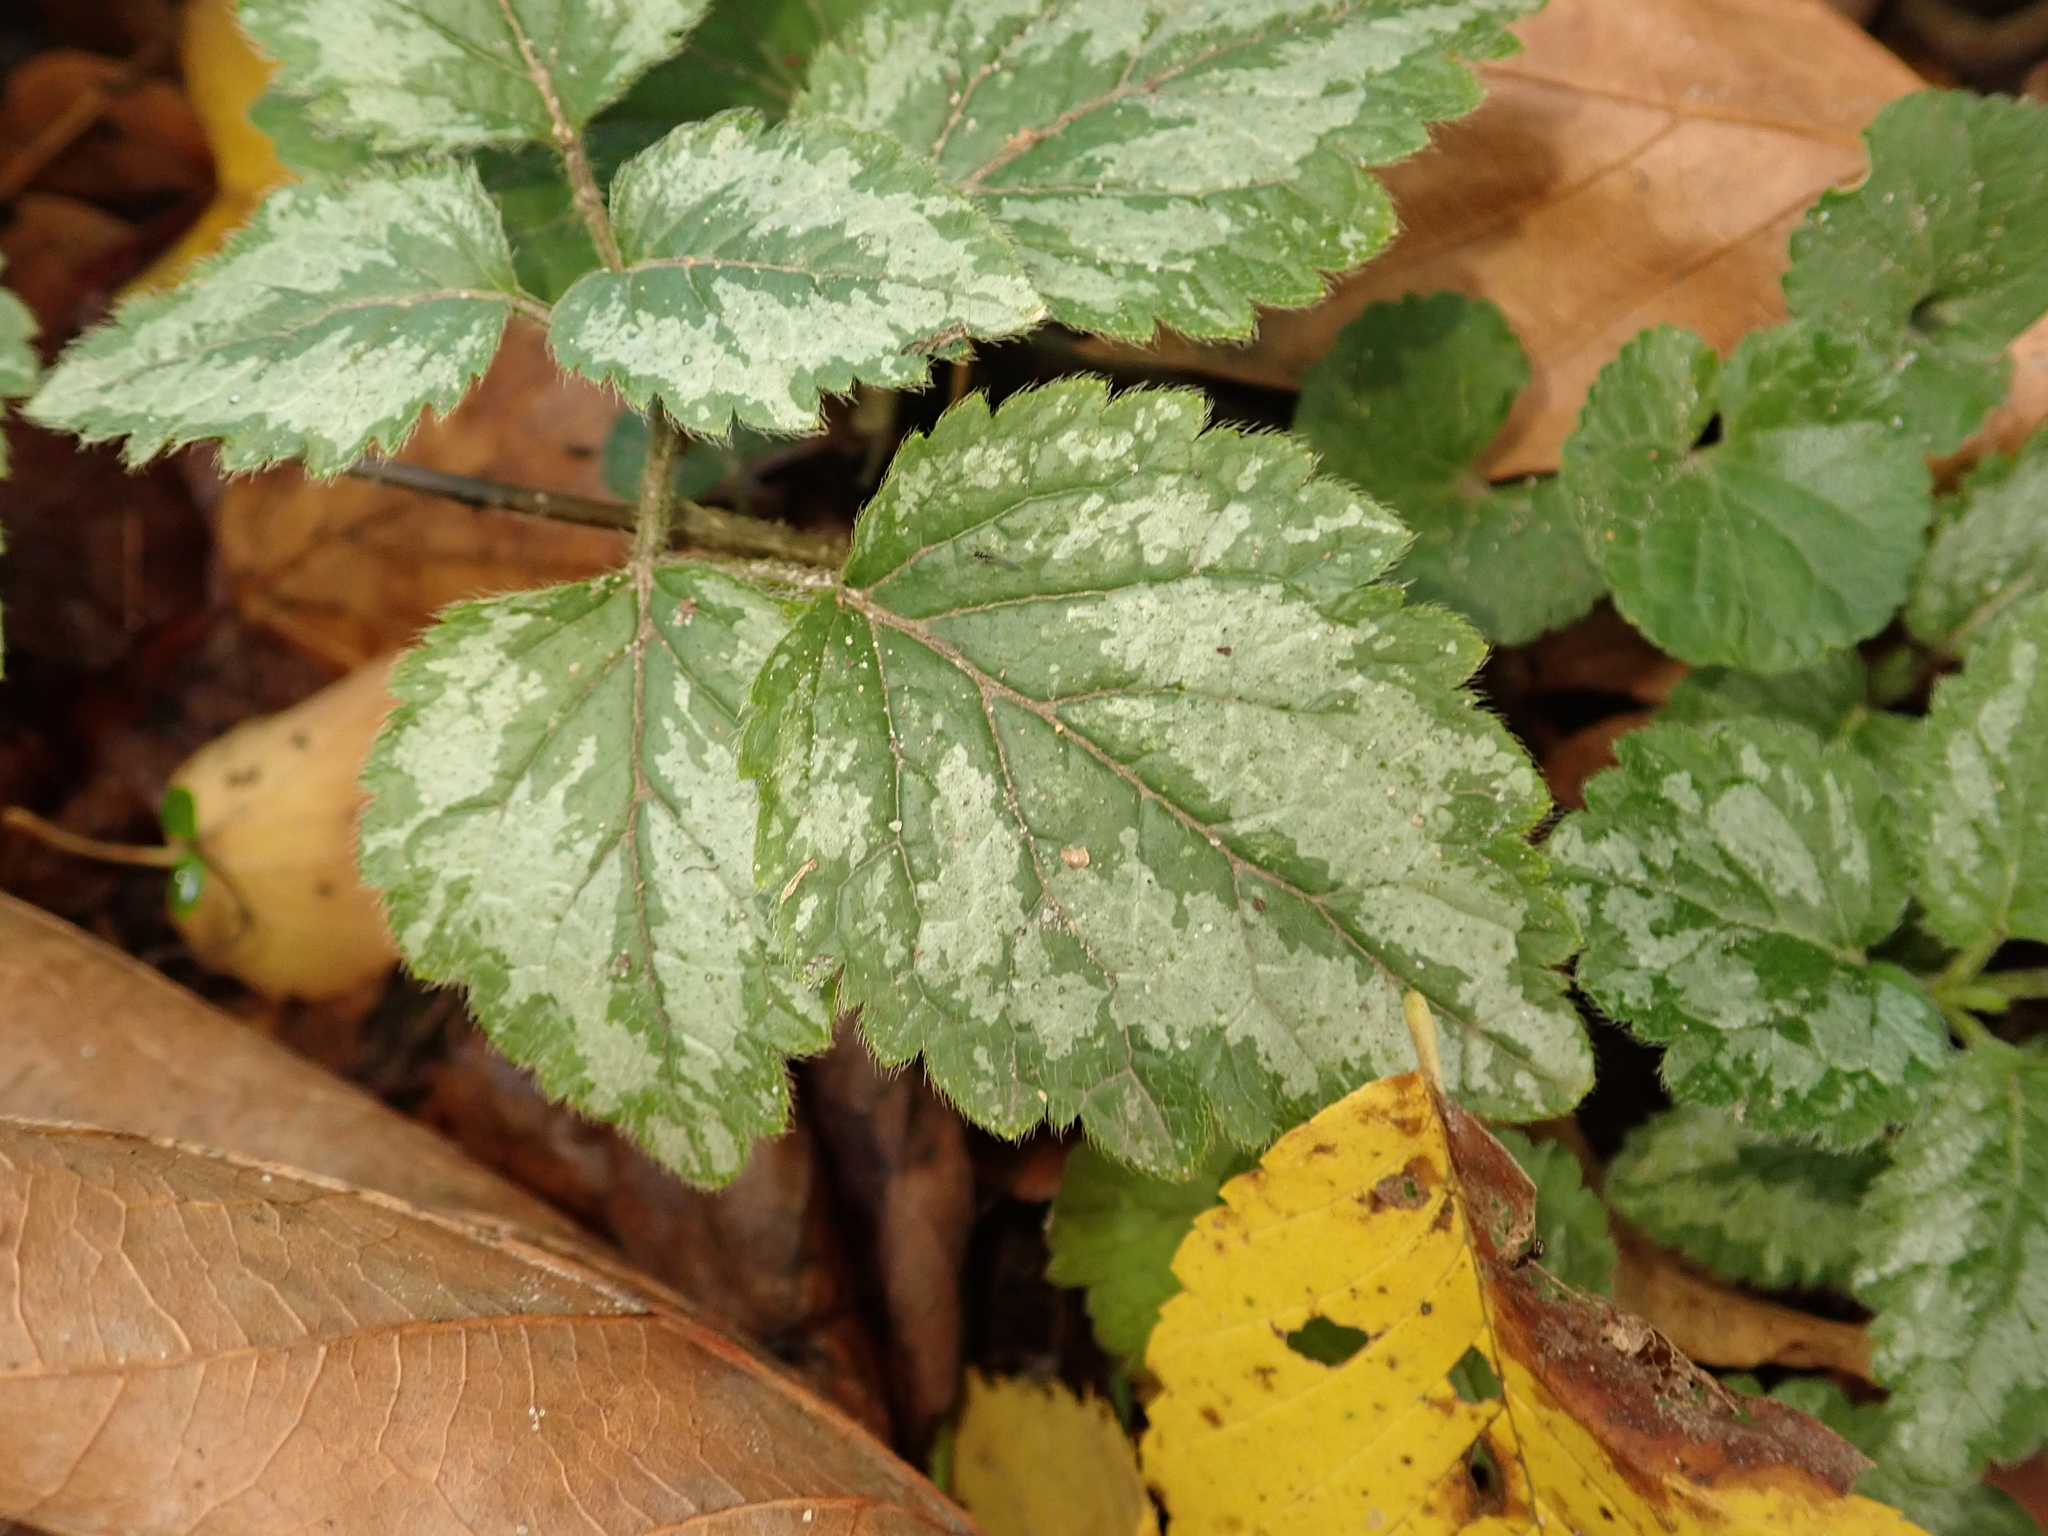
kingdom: Plantae
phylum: Tracheophyta
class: Magnoliopsida
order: Lamiales
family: Lamiaceae
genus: Lamium
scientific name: Lamium galeobdolon
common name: Yellow archangel
